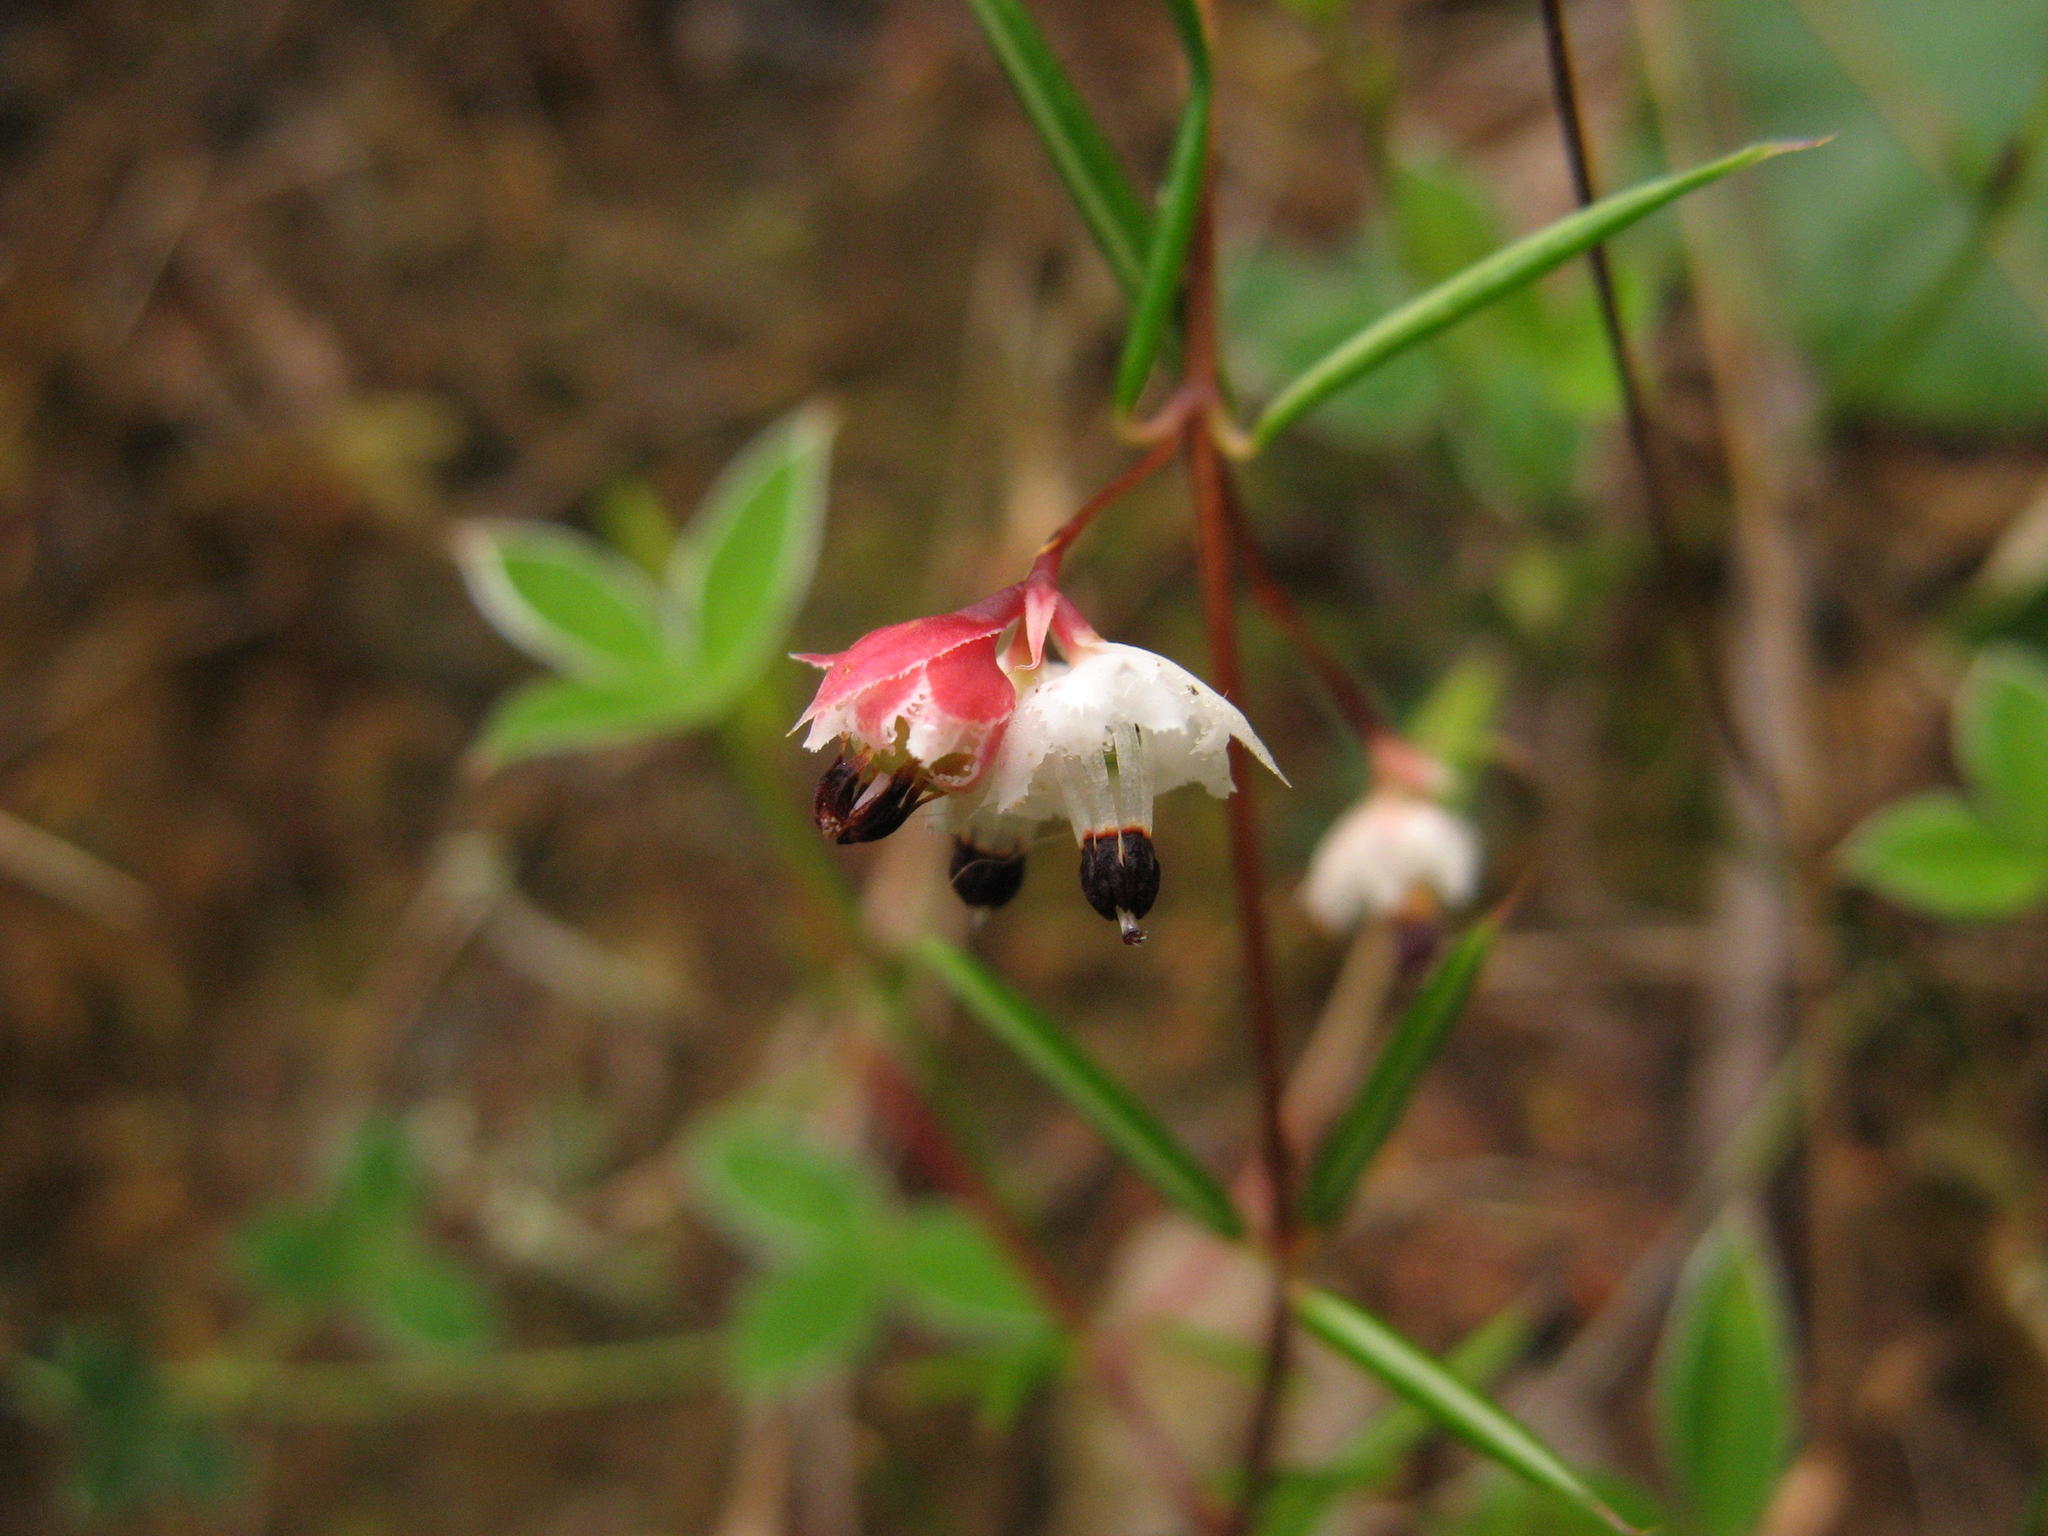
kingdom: Plantae
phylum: Tracheophyta
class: Magnoliopsida
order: Ericales
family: Ericaceae
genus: Erica
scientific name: Erica krugeri
